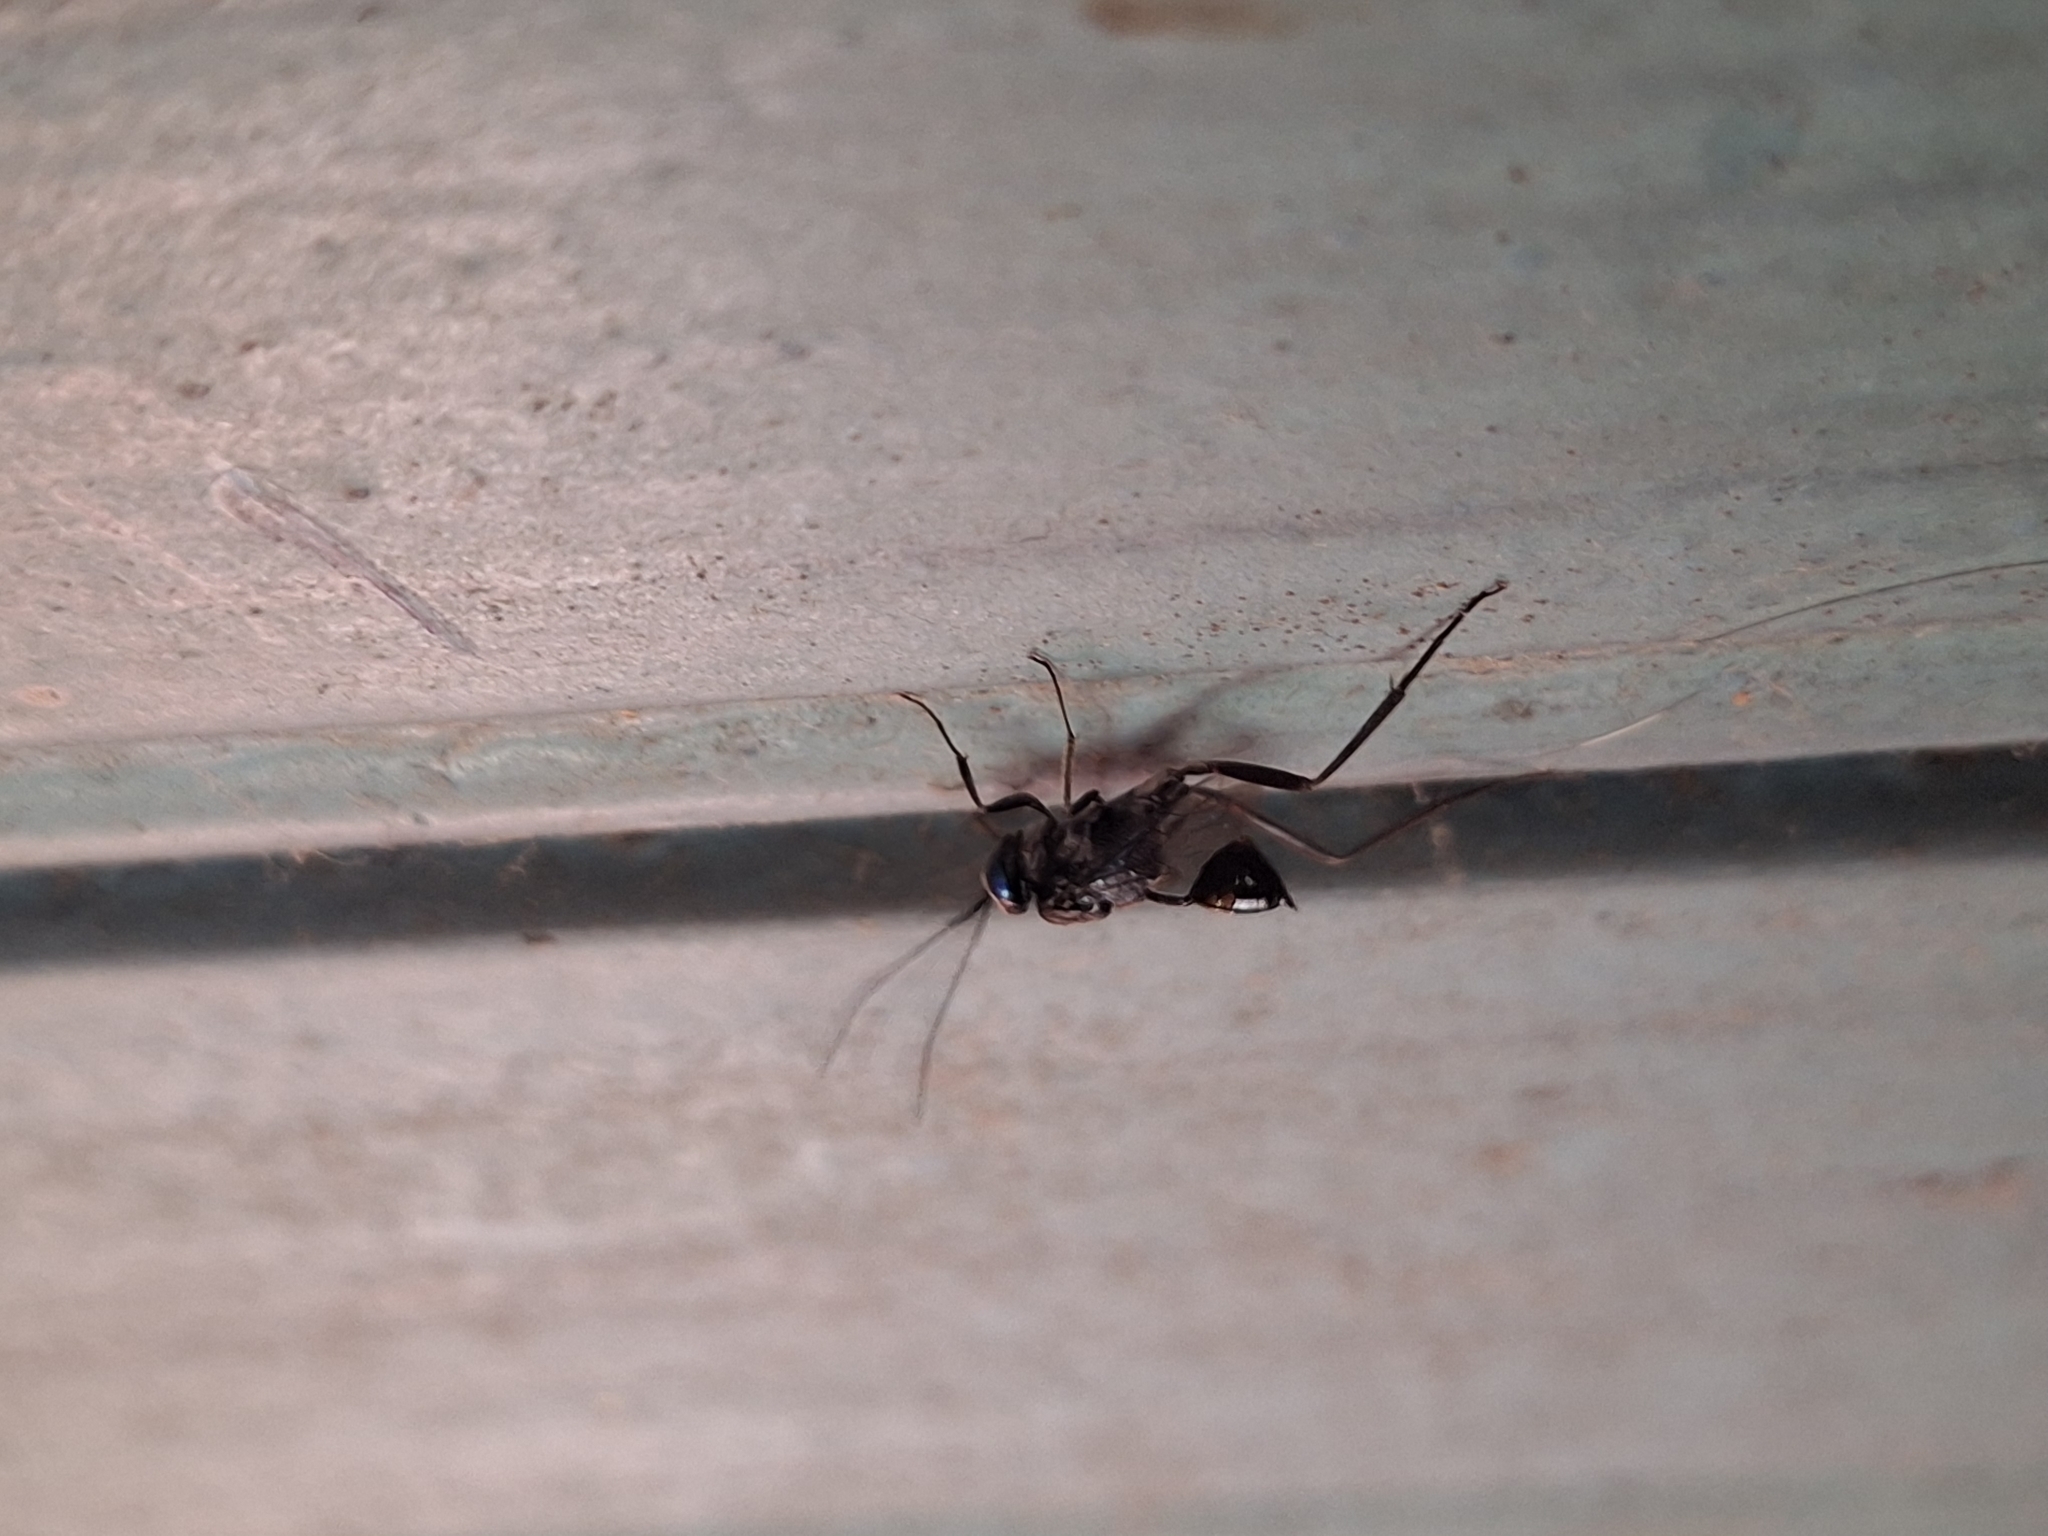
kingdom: Animalia
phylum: Arthropoda
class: Insecta
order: Hymenoptera
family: Evaniidae
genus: Evania
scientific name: Evania appendigaster
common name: Ensign wasp
